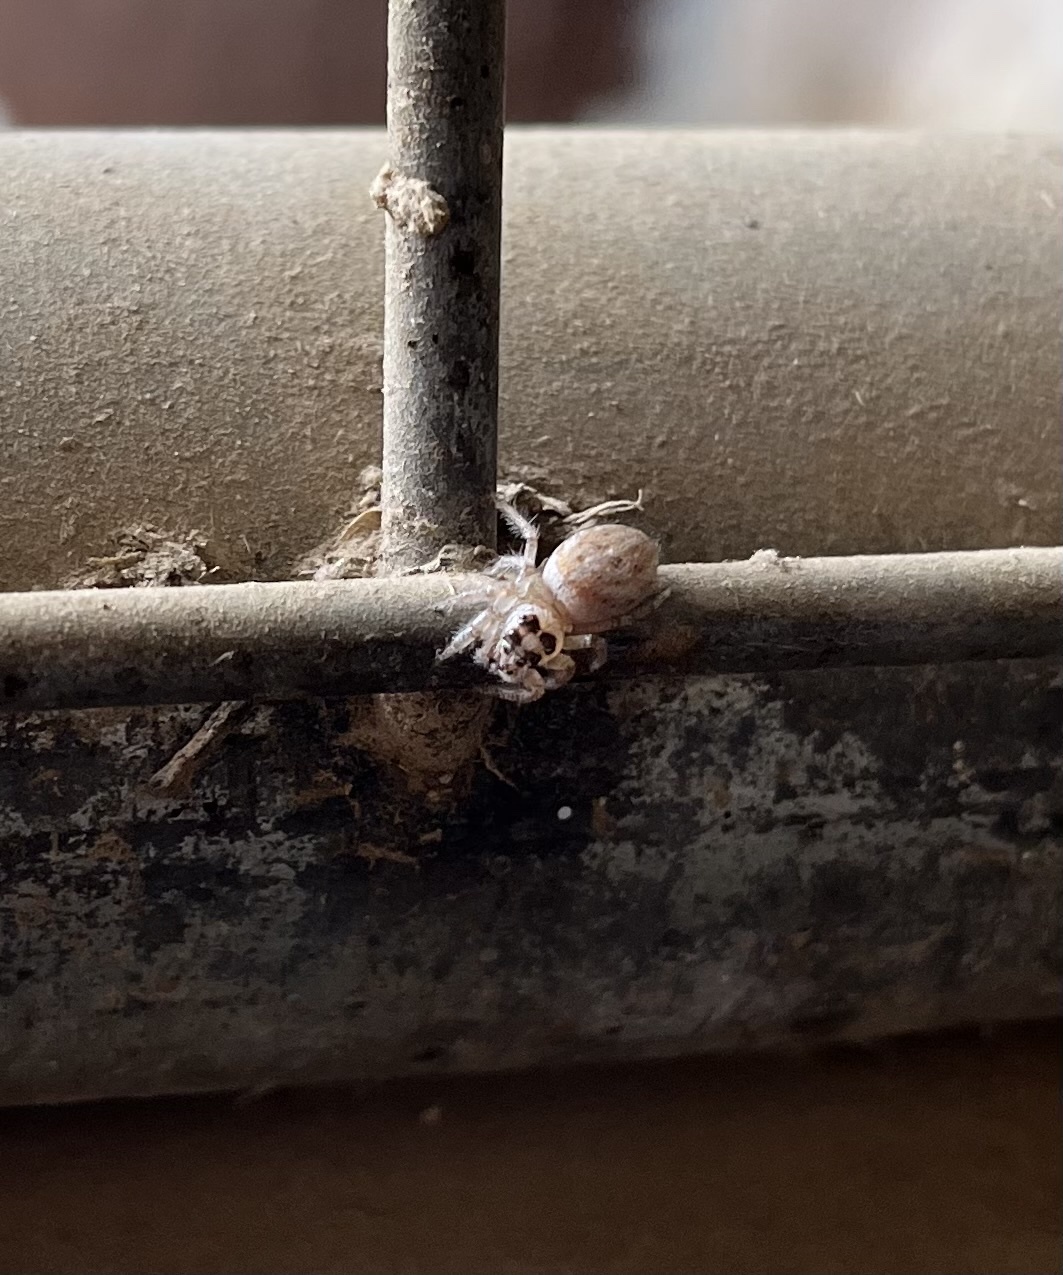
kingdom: Animalia
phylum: Arthropoda
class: Arachnida
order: Araneae
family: Salticidae
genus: Colonus
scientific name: Colonus hesperus
